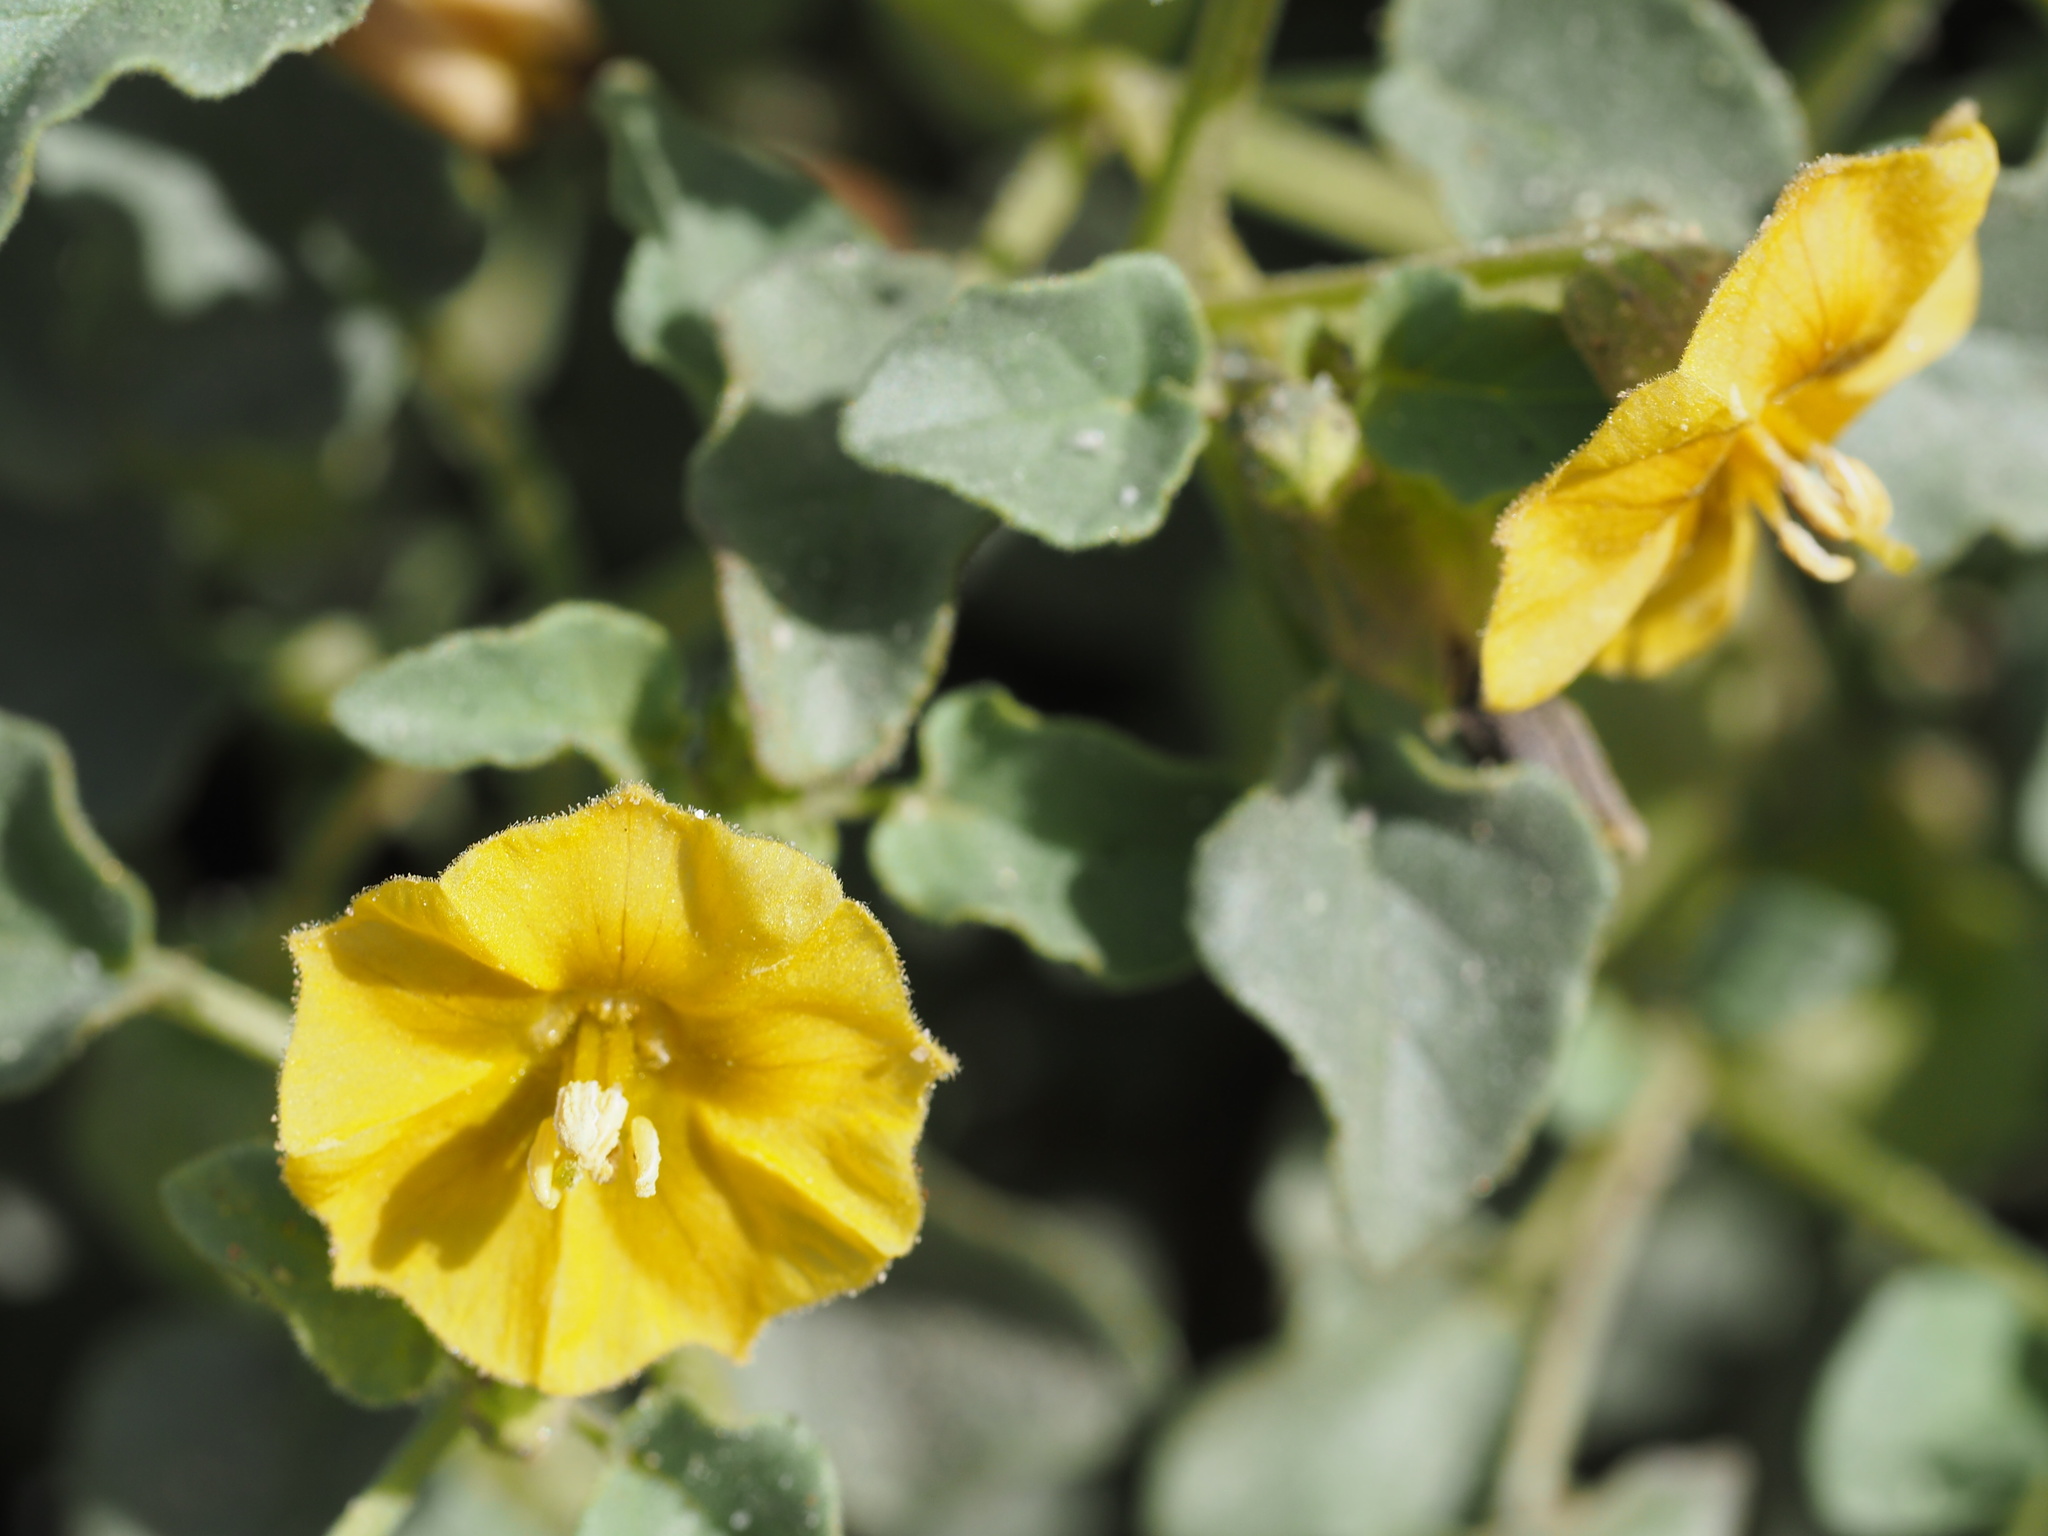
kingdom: Plantae
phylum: Tracheophyta
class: Magnoliopsida
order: Solanales
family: Solanaceae
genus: Physalis
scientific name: Physalis crassifolia
